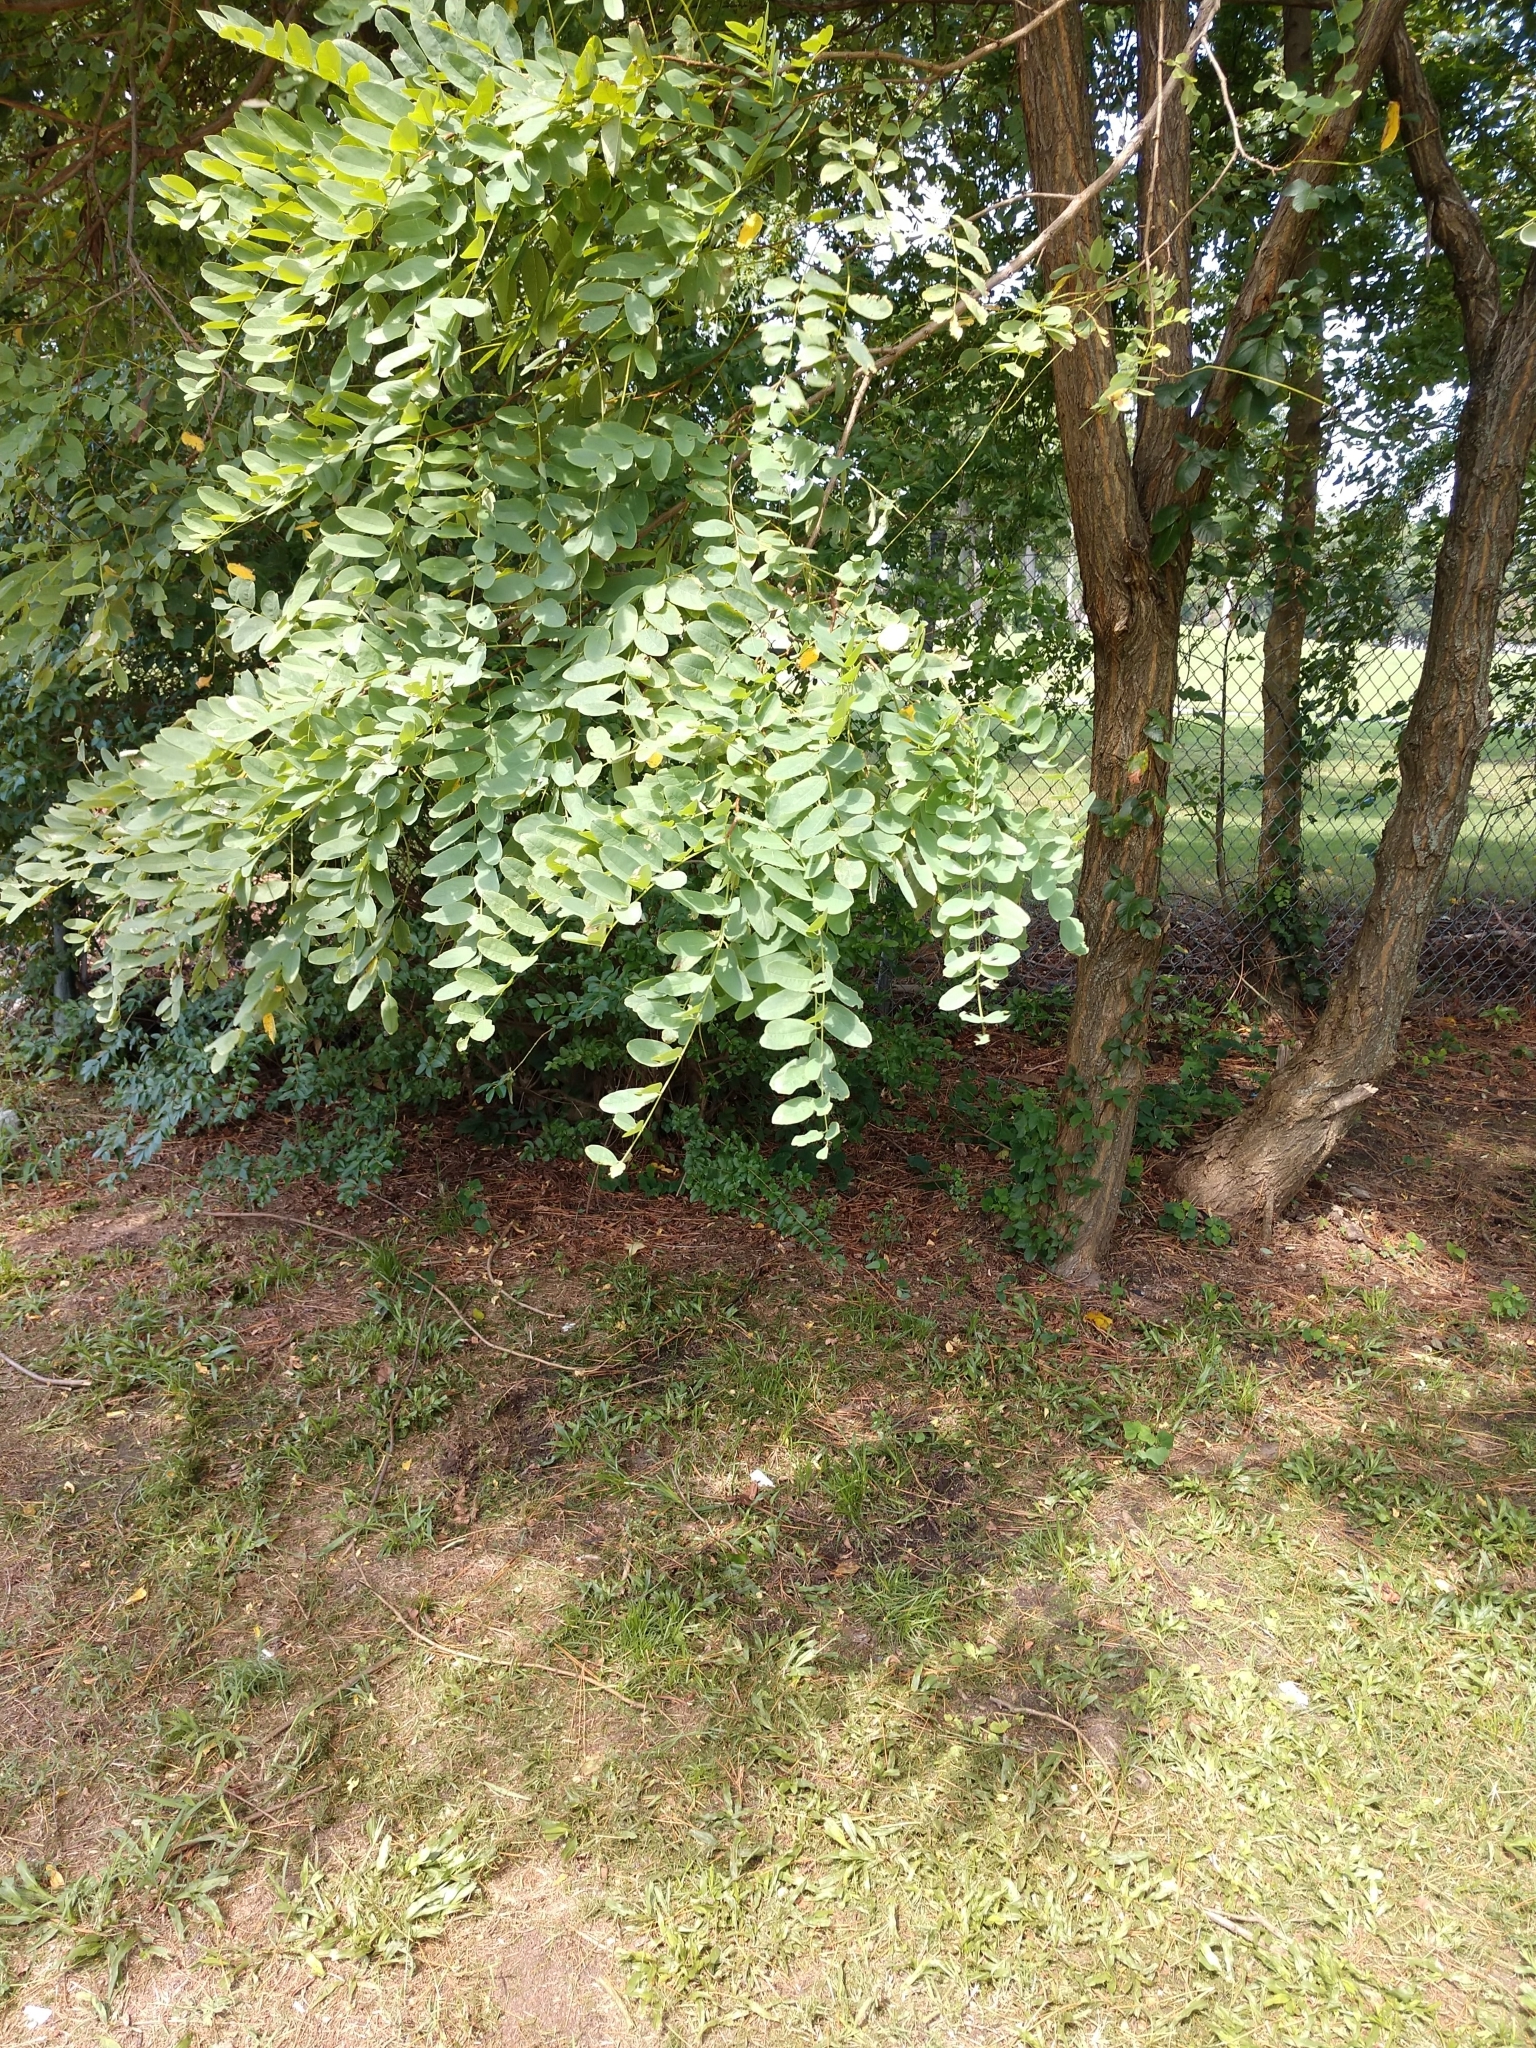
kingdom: Plantae
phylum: Tracheophyta
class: Magnoliopsida
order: Fabales
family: Fabaceae
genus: Robinia
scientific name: Robinia pseudoacacia
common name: Black locust
